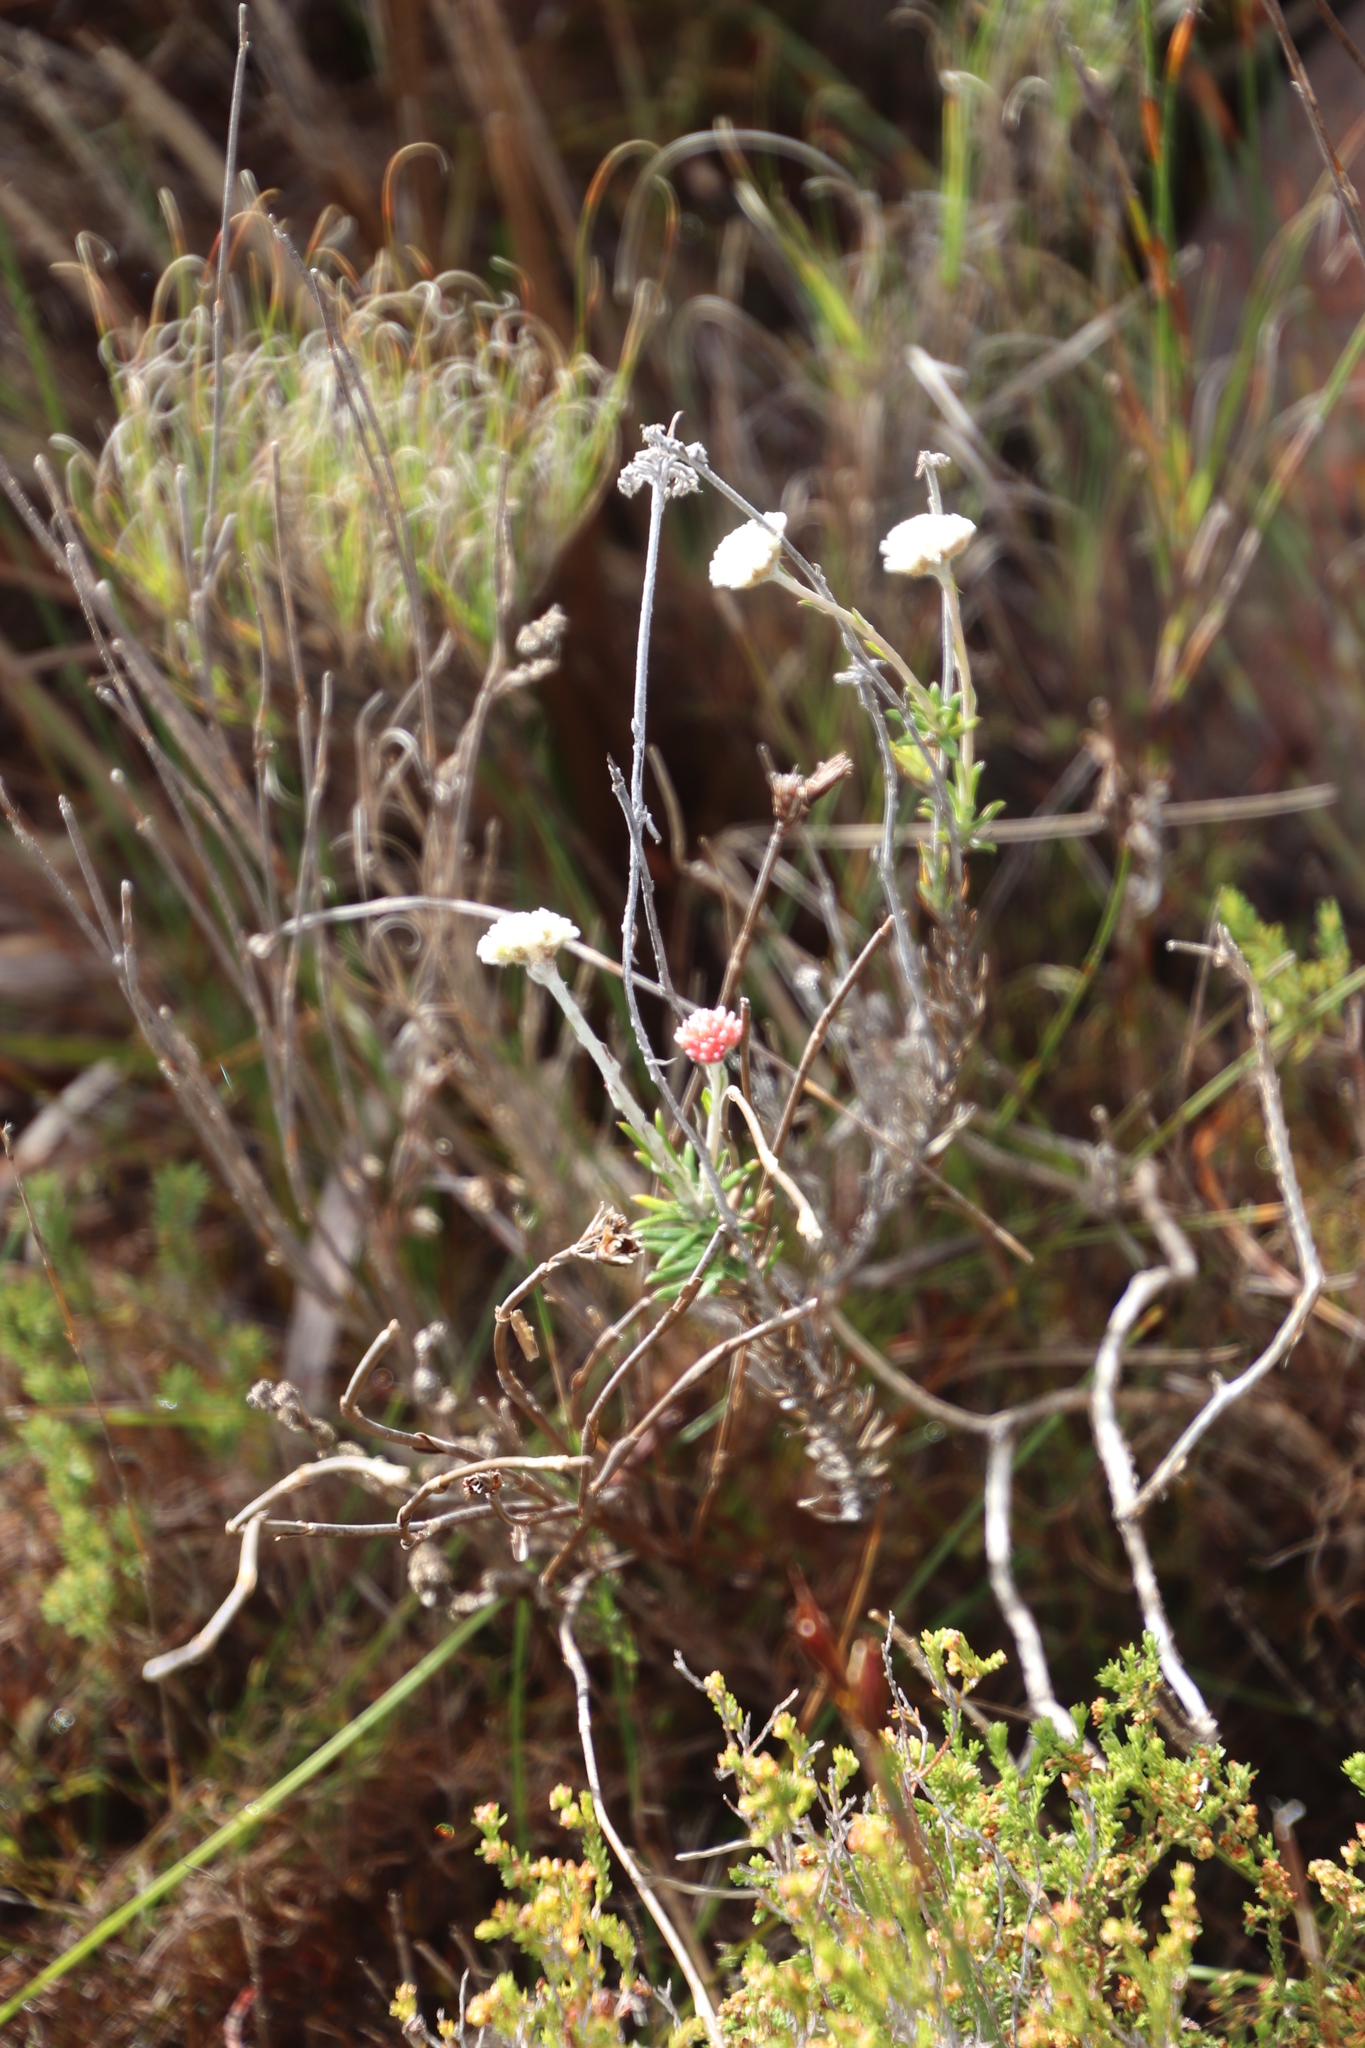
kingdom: Plantae
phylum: Tracheophyta
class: Magnoliopsida
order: Asterales
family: Asteraceae
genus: Anaxeton
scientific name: Anaxeton laeve
